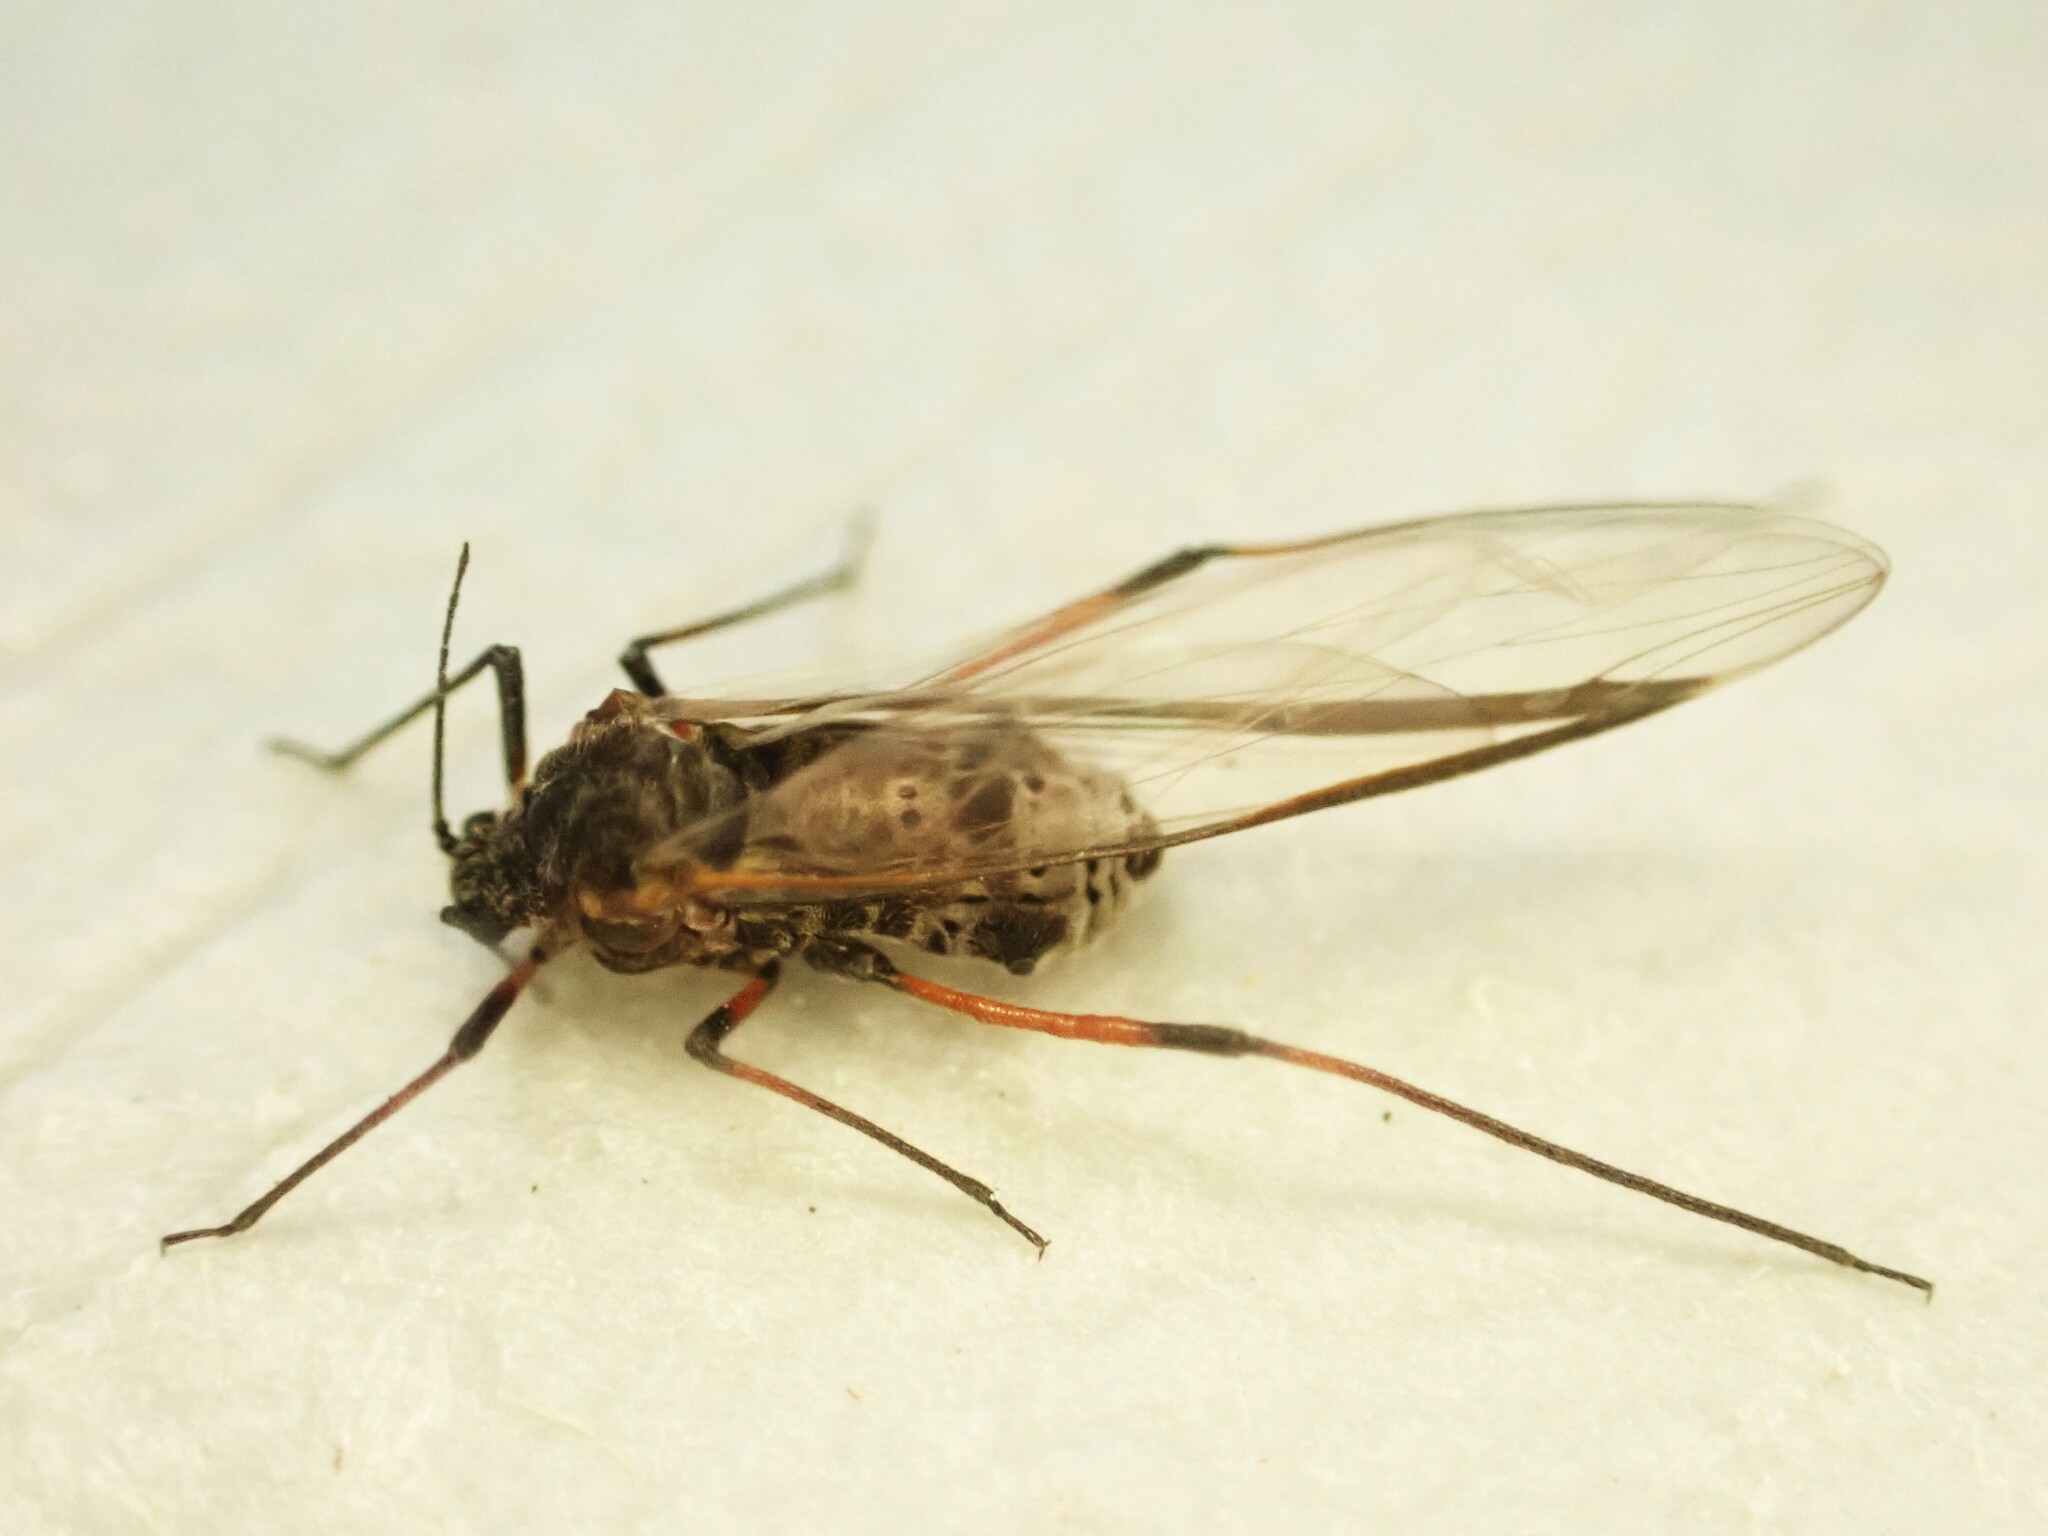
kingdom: Animalia
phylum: Arthropoda
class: Insecta
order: Hemiptera
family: Aphididae
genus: Tuberolachnus
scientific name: Tuberolachnus salignus
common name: Giant willow aphid
